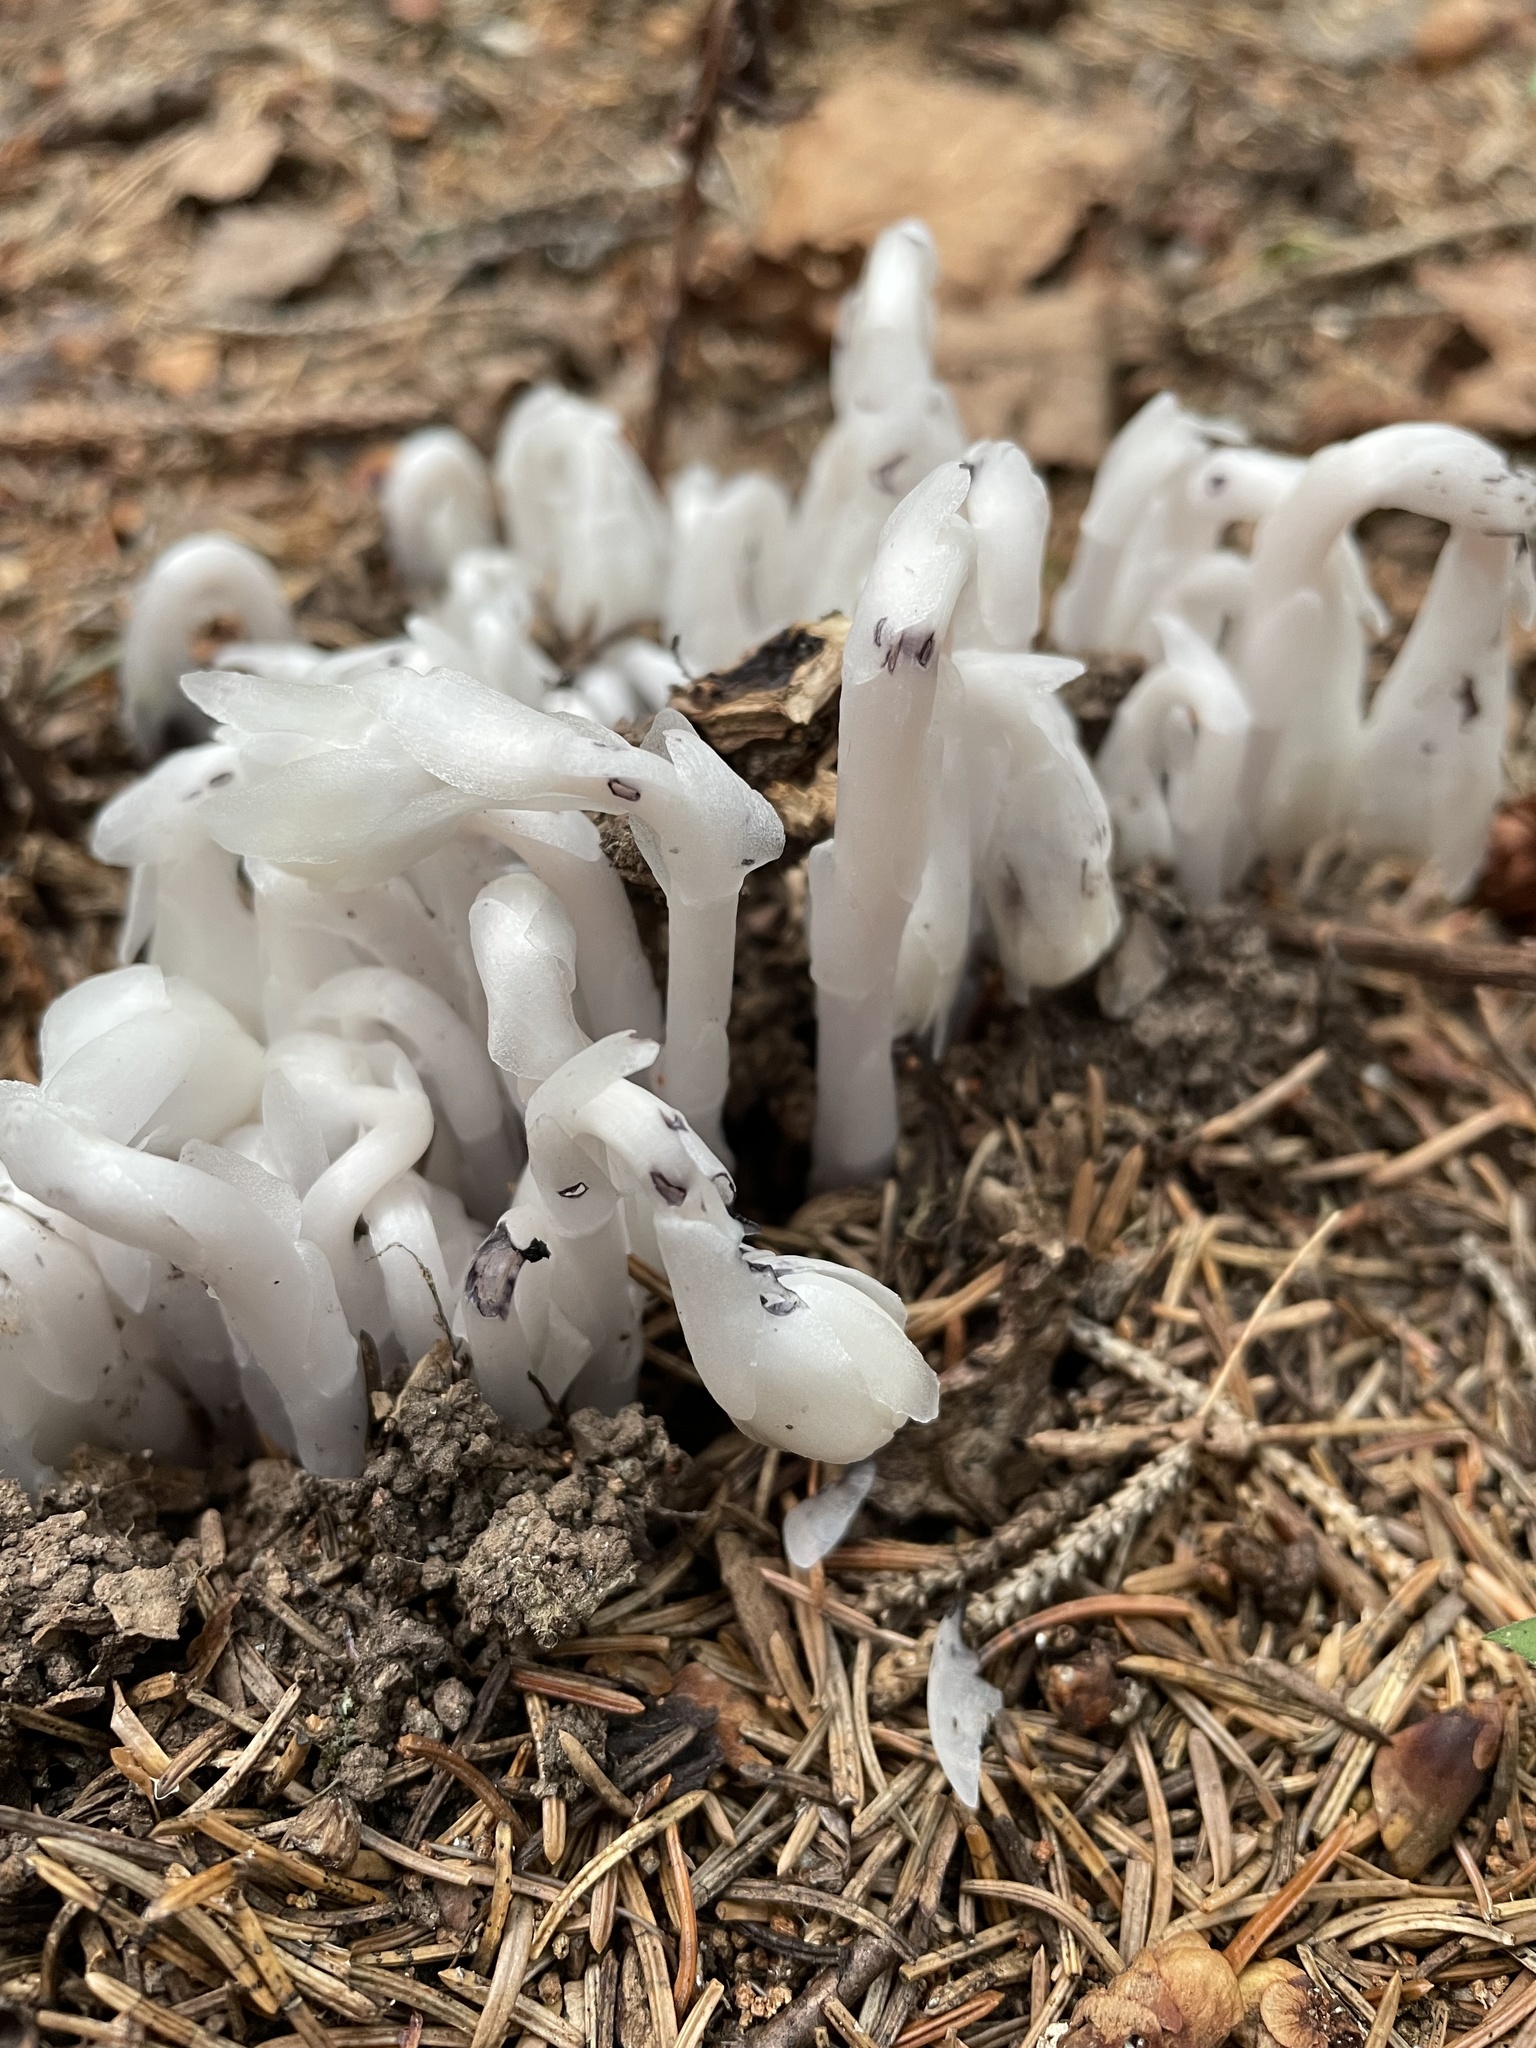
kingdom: Plantae
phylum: Tracheophyta
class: Magnoliopsida
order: Ericales
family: Ericaceae
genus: Monotropa
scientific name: Monotropa uniflora
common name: Convulsion root
